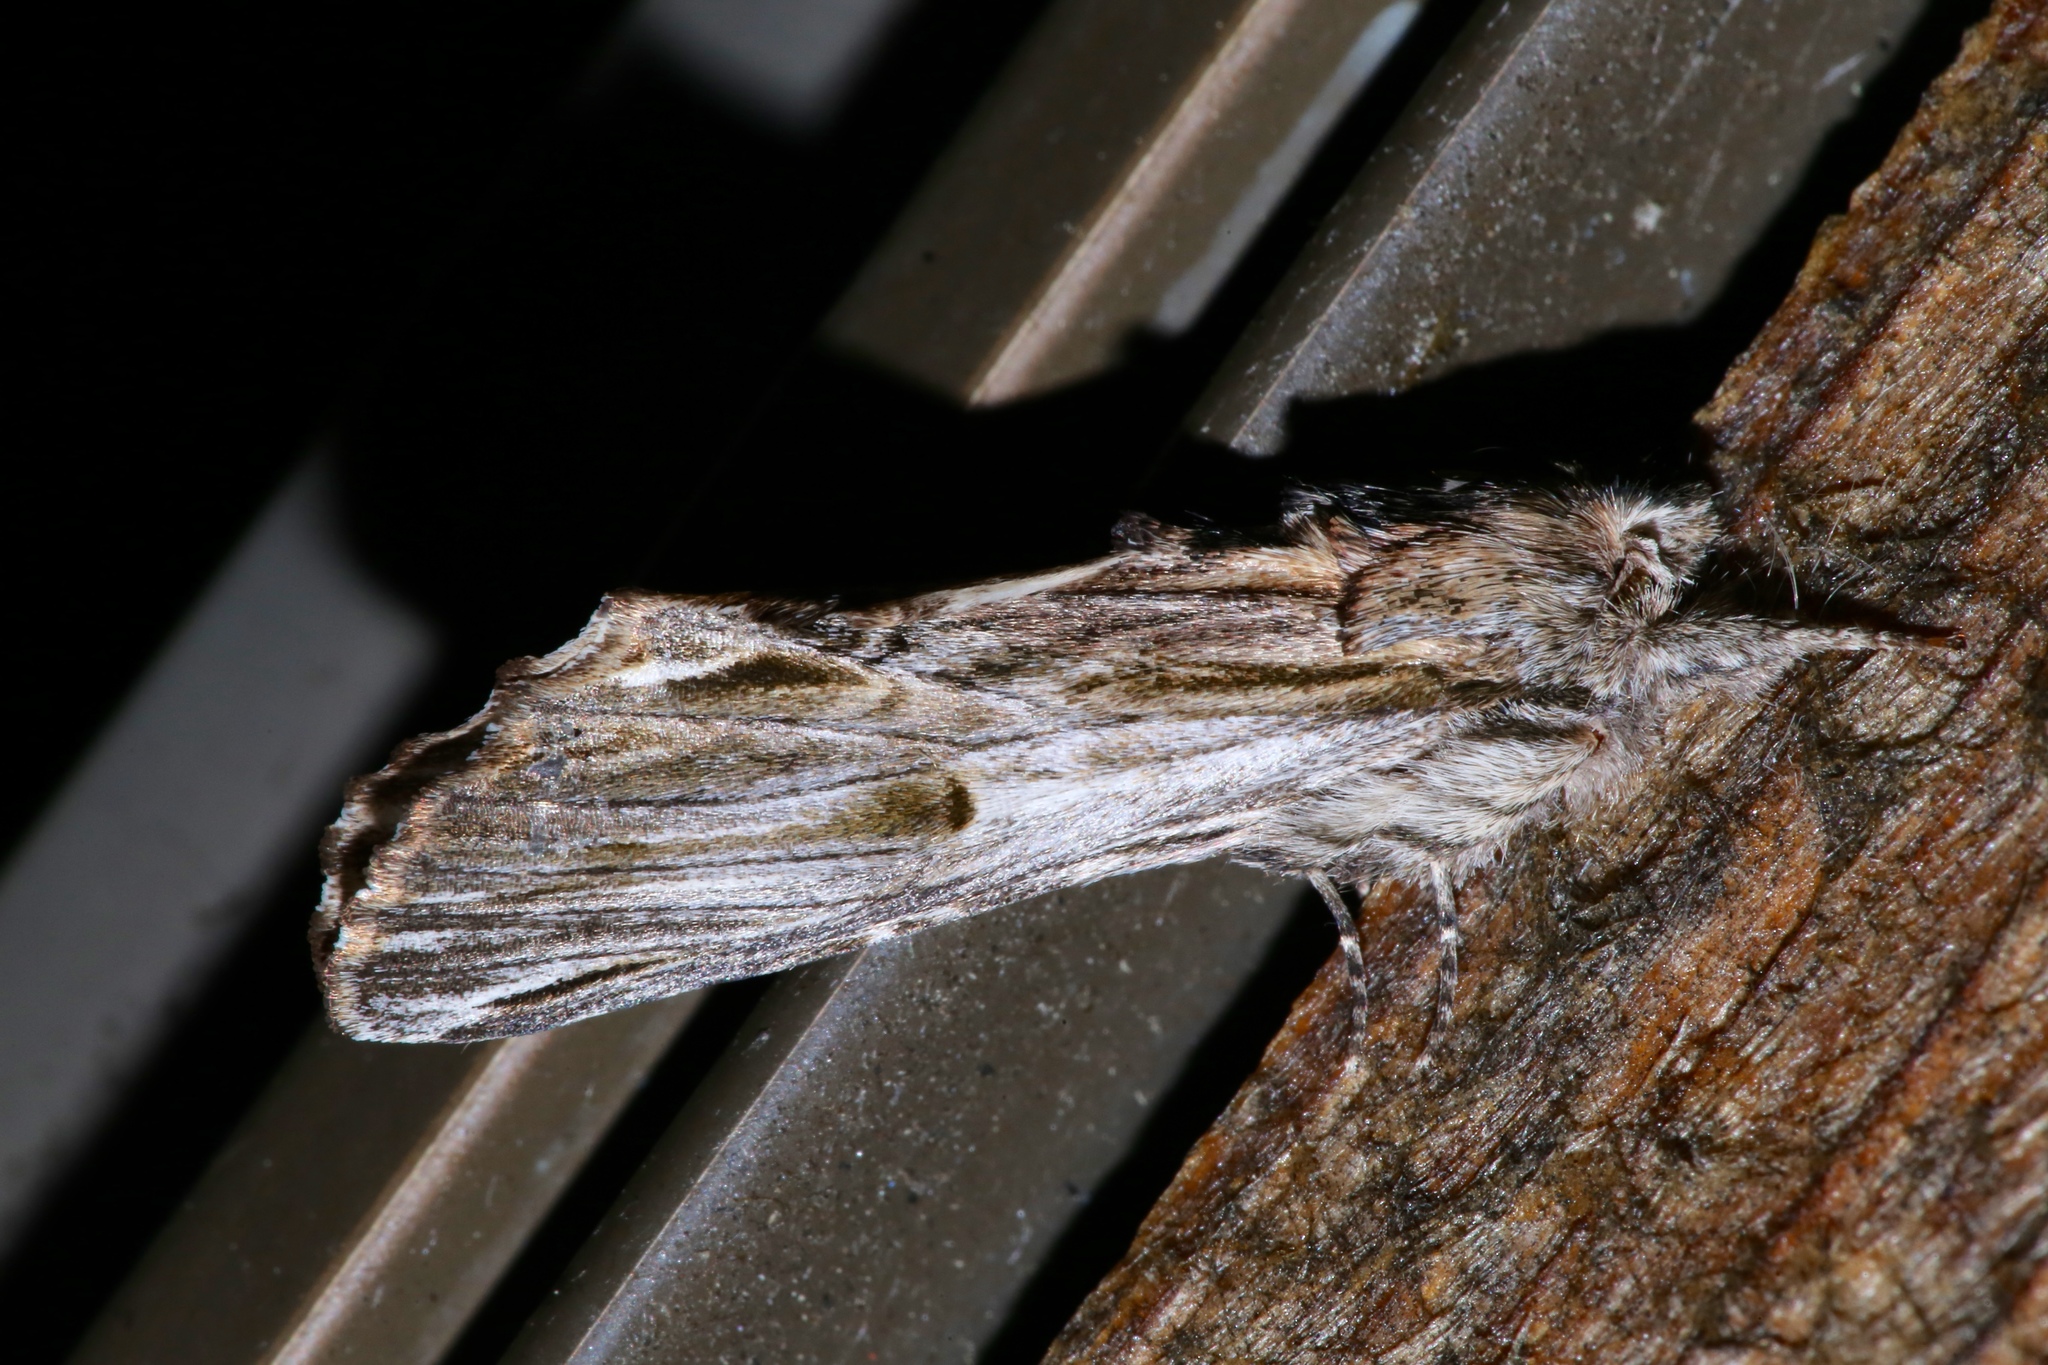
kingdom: Animalia
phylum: Arthropoda
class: Insecta
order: Lepidoptera
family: Notodontidae
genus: Oligocentria
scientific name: Oligocentria Ianassa lignicolor
